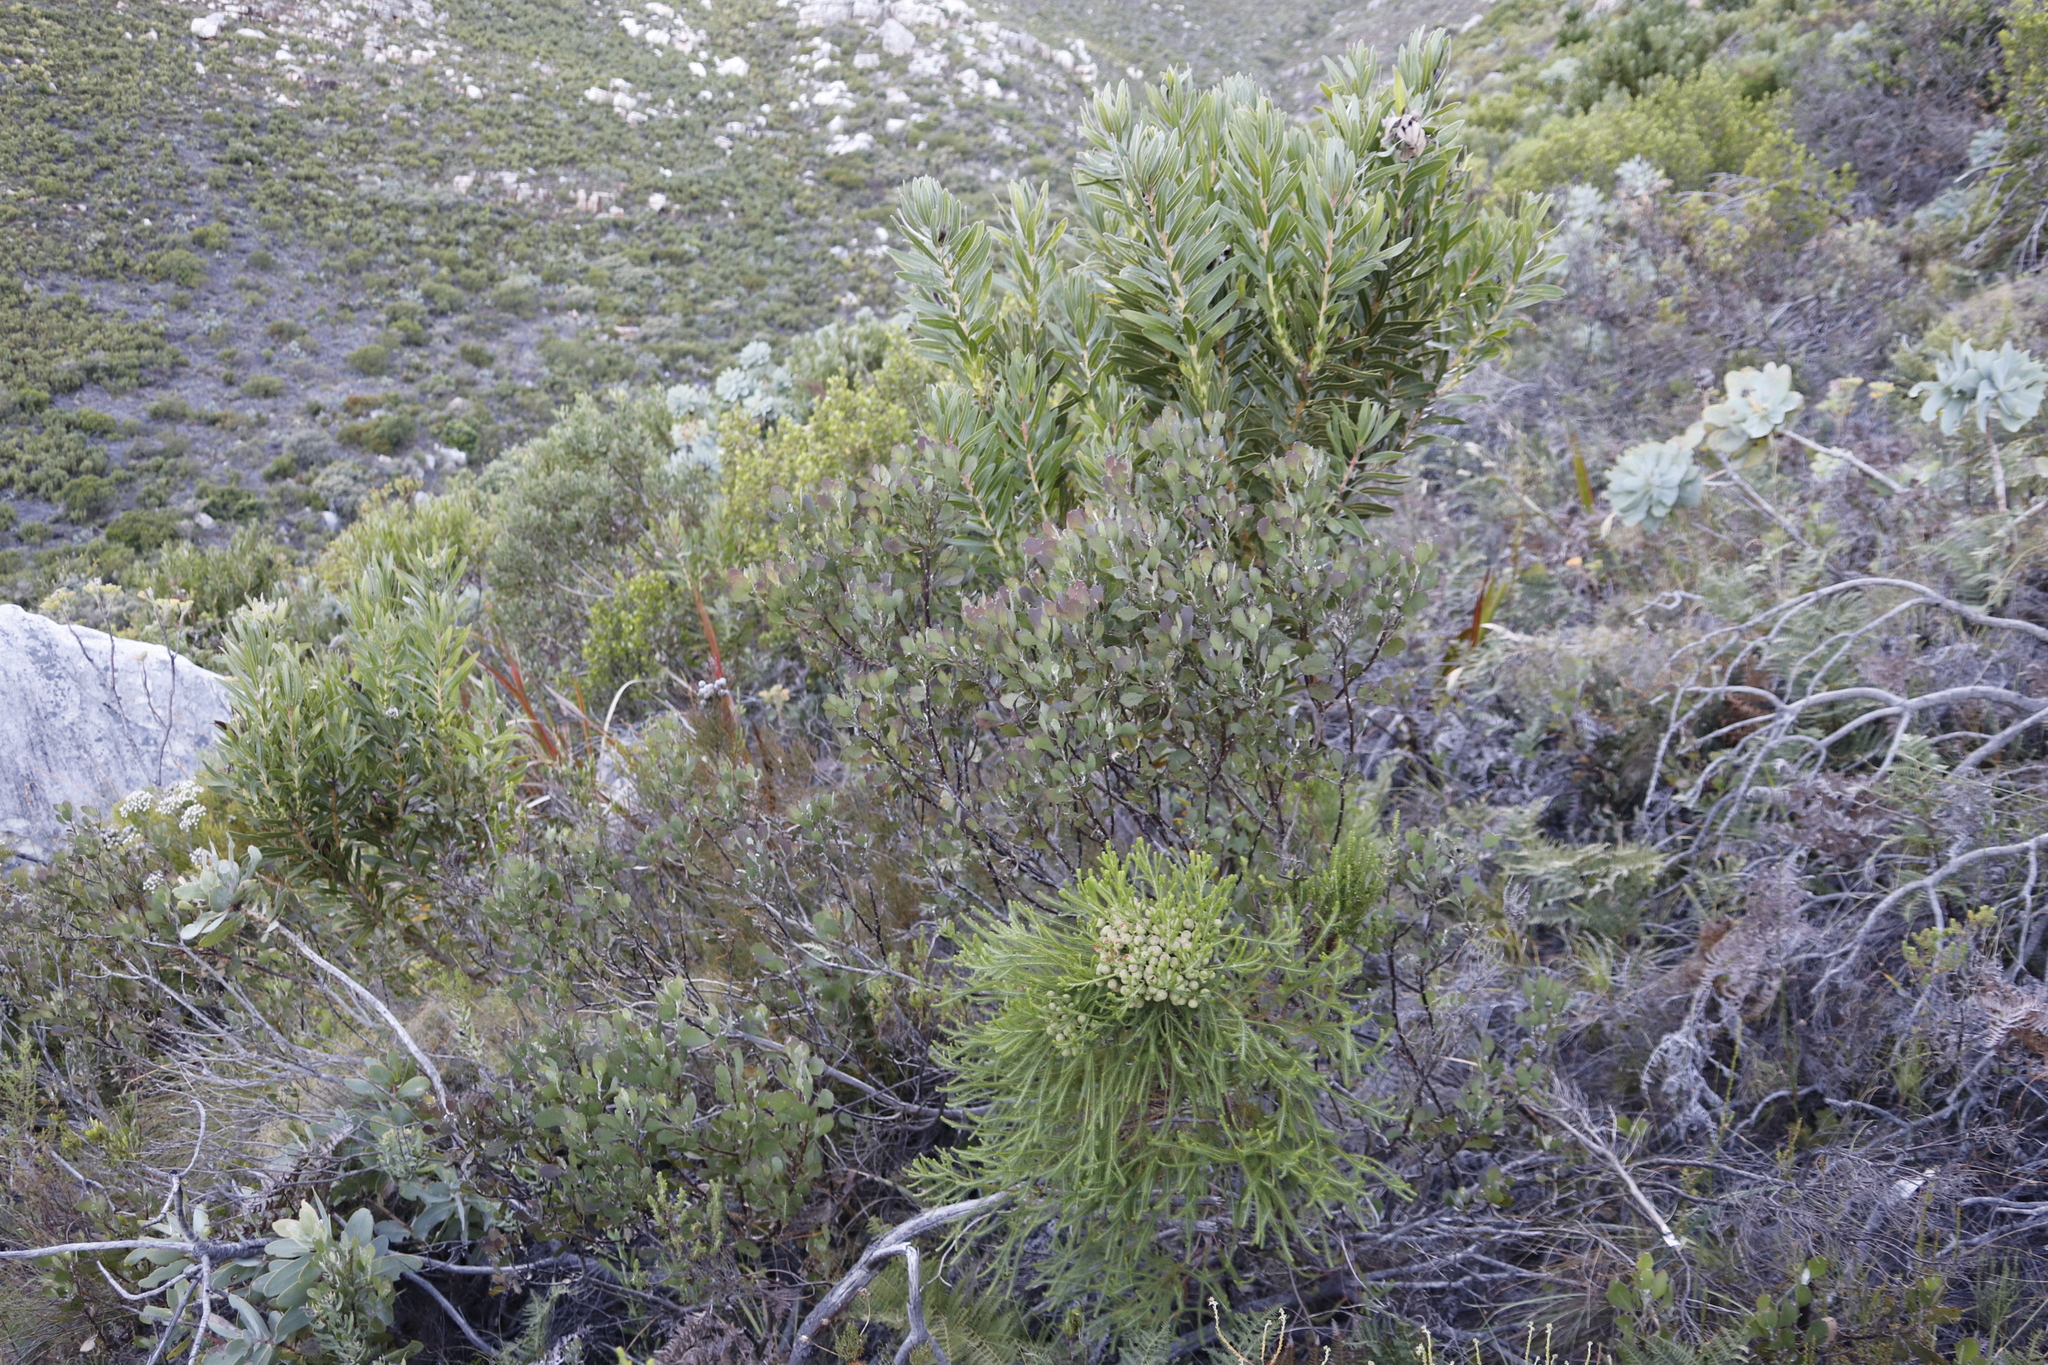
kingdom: Plantae
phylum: Tracheophyta
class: Magnoliopsida
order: Asterales
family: Asteraceae
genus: Osteospermum
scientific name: Osteospermum moniliferum
